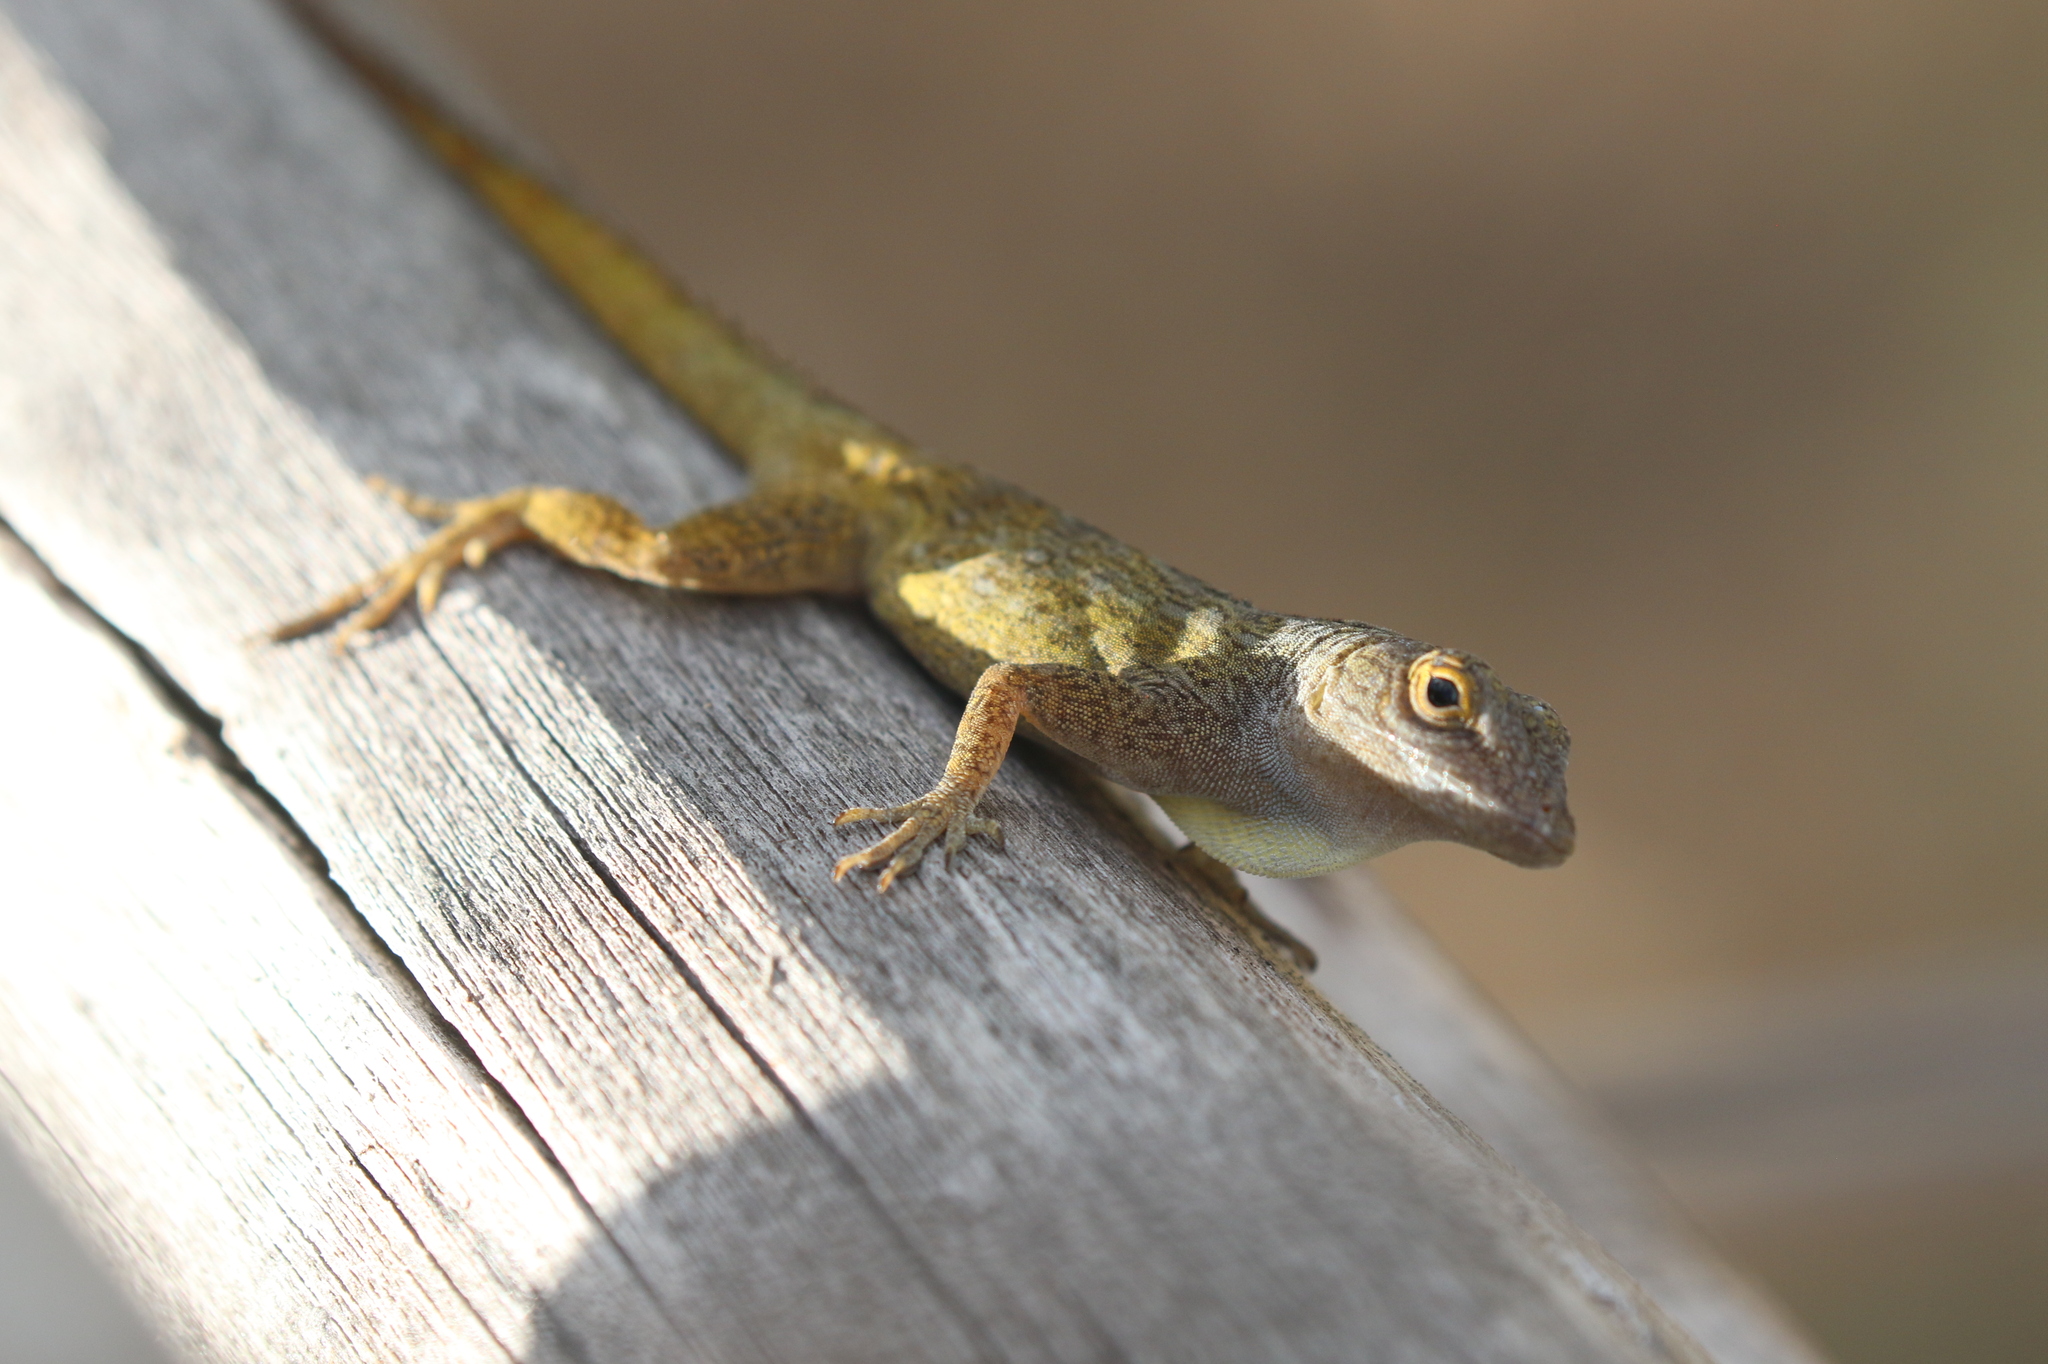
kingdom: Animalia
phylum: Chordata
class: Squamata
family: Dactyloidae
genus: Anolis
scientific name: Anolis properus
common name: Bark anole
